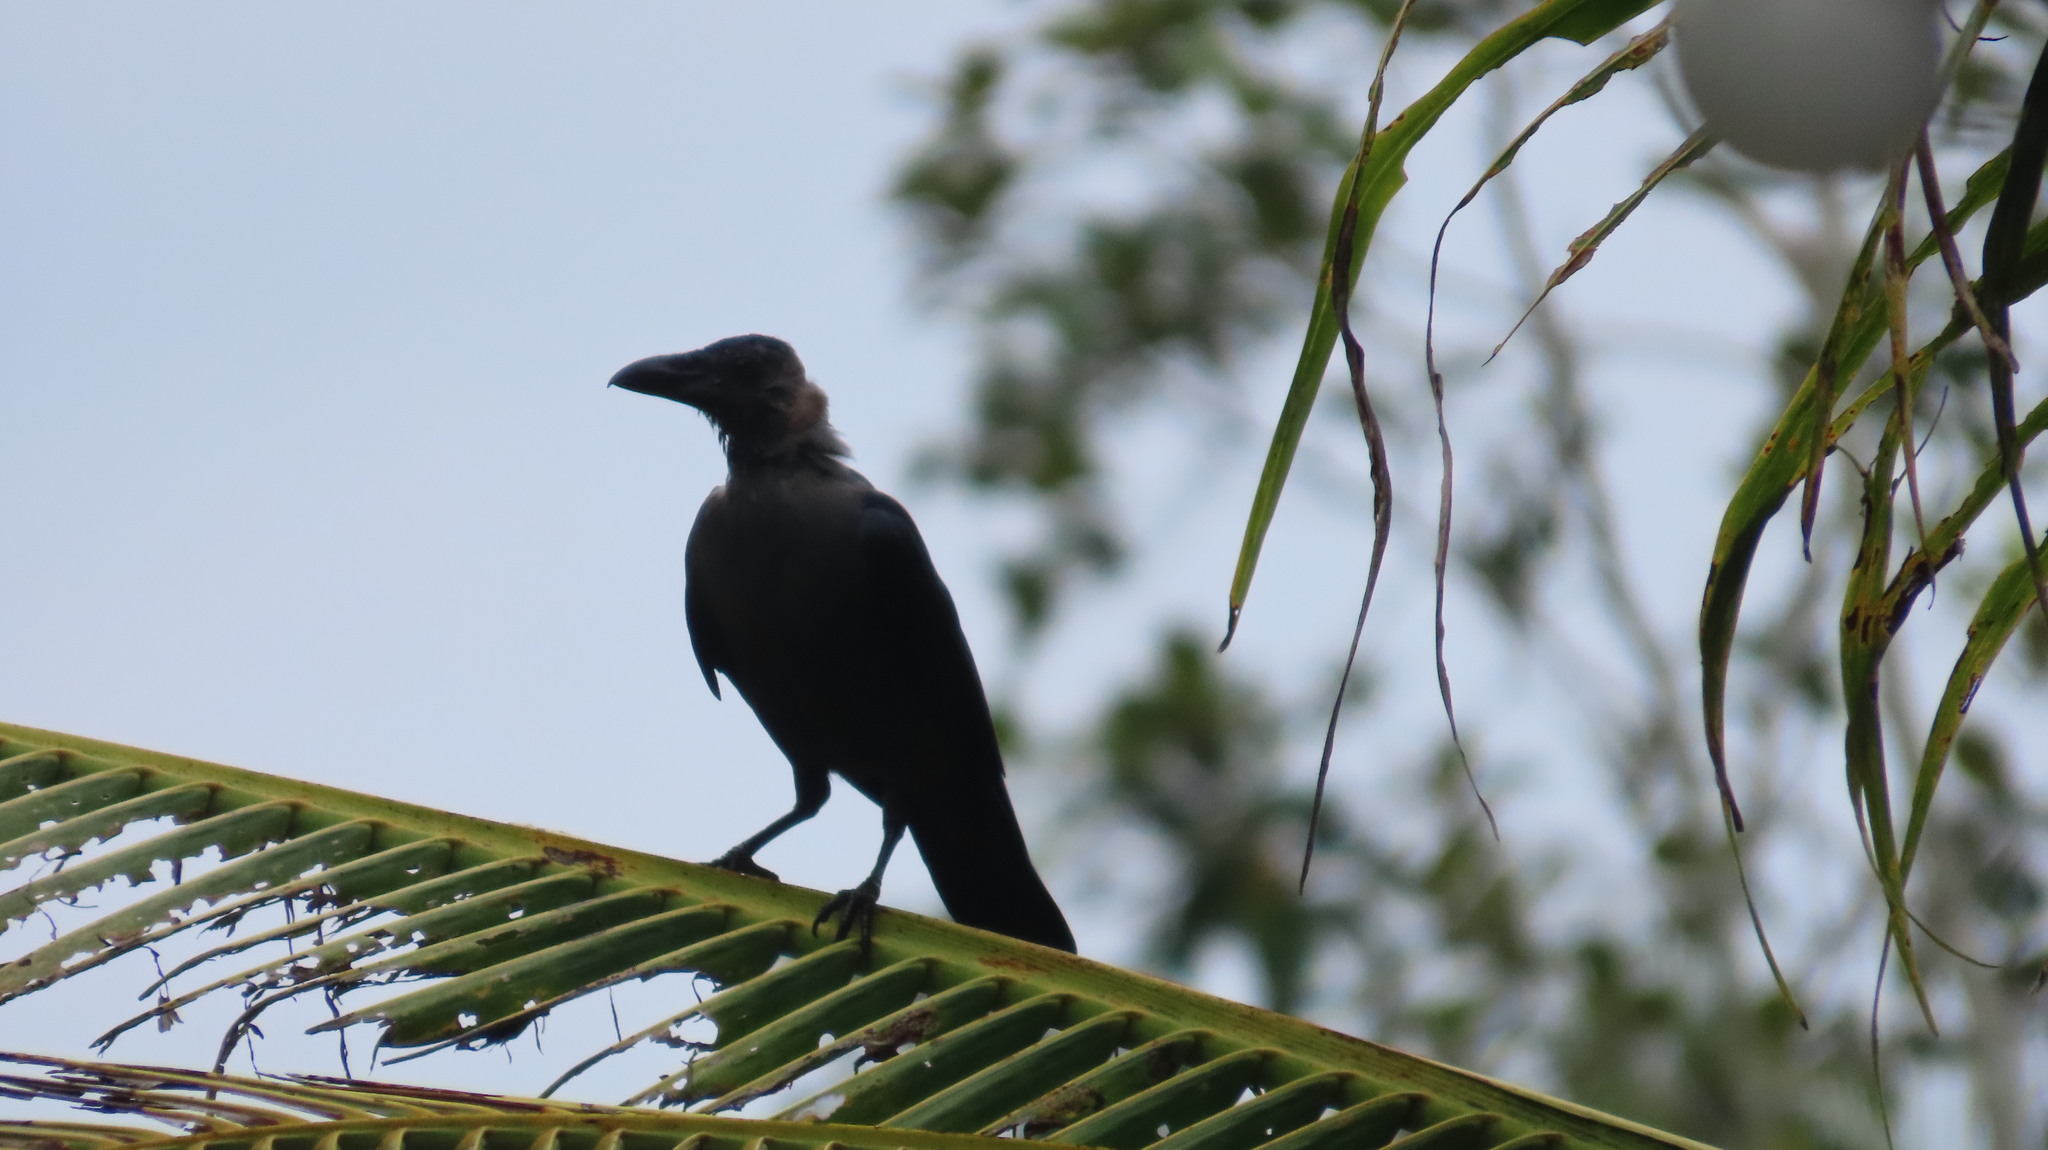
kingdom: Animalia
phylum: Chordata
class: Aves
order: Passeriformes
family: Corvidae
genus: Corvus
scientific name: Corvus splendens
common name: House crow
